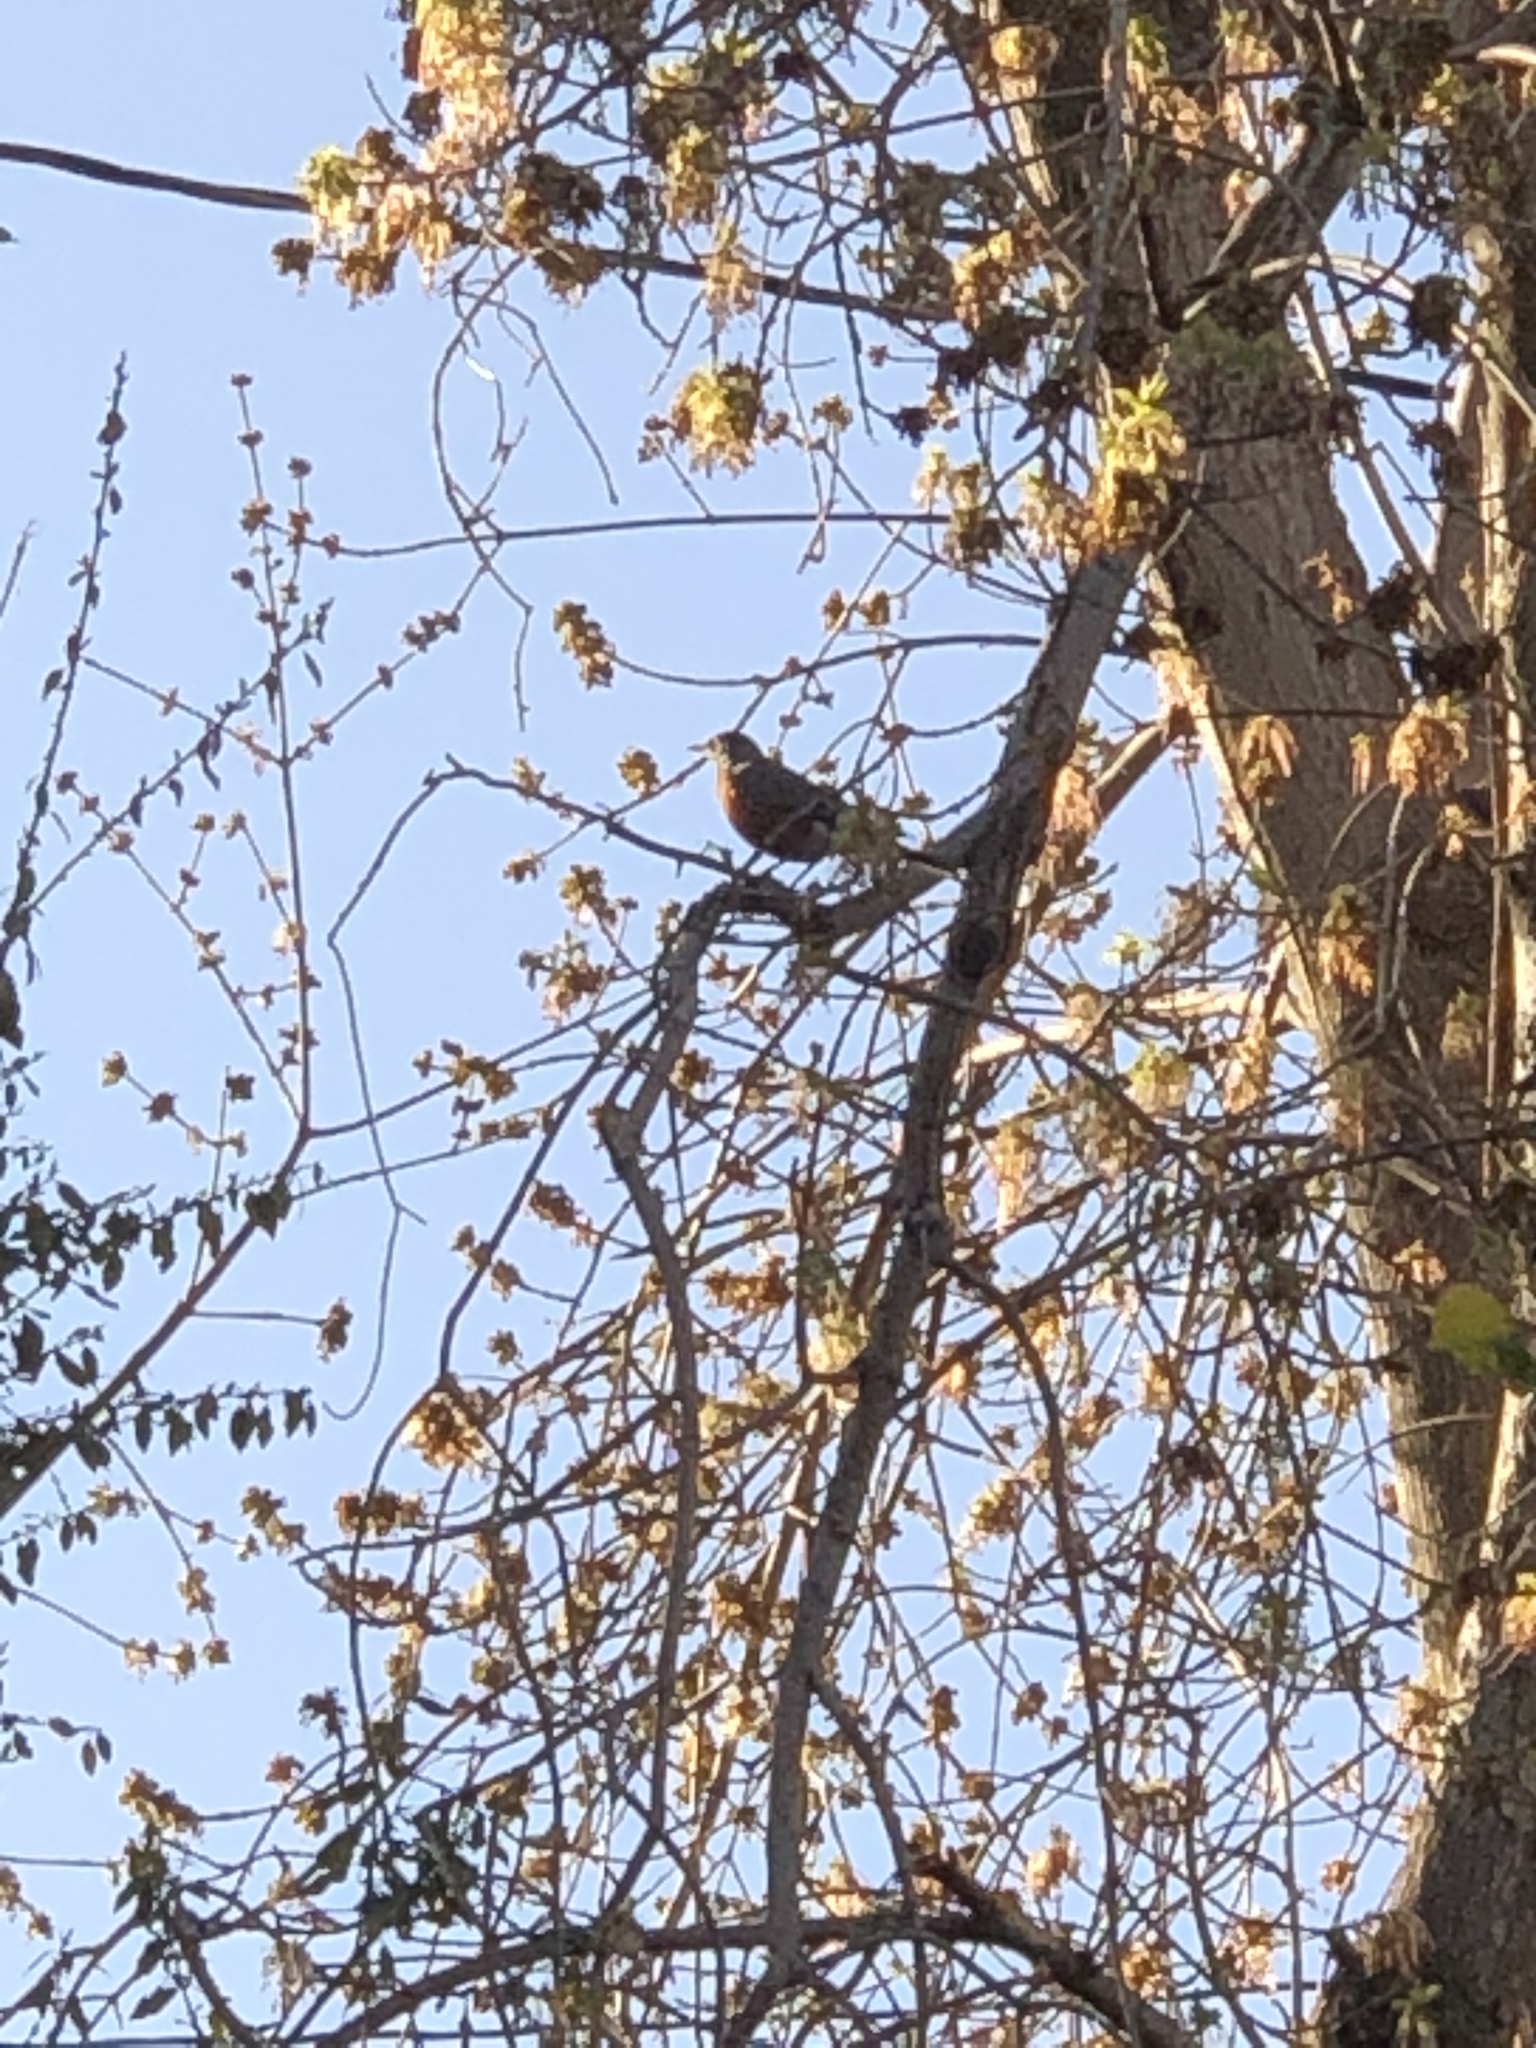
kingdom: Animalia
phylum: Chordata
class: Aves
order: Passeriformes
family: Turdidae
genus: Turdus
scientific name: Turdus migratorius
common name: American robin
